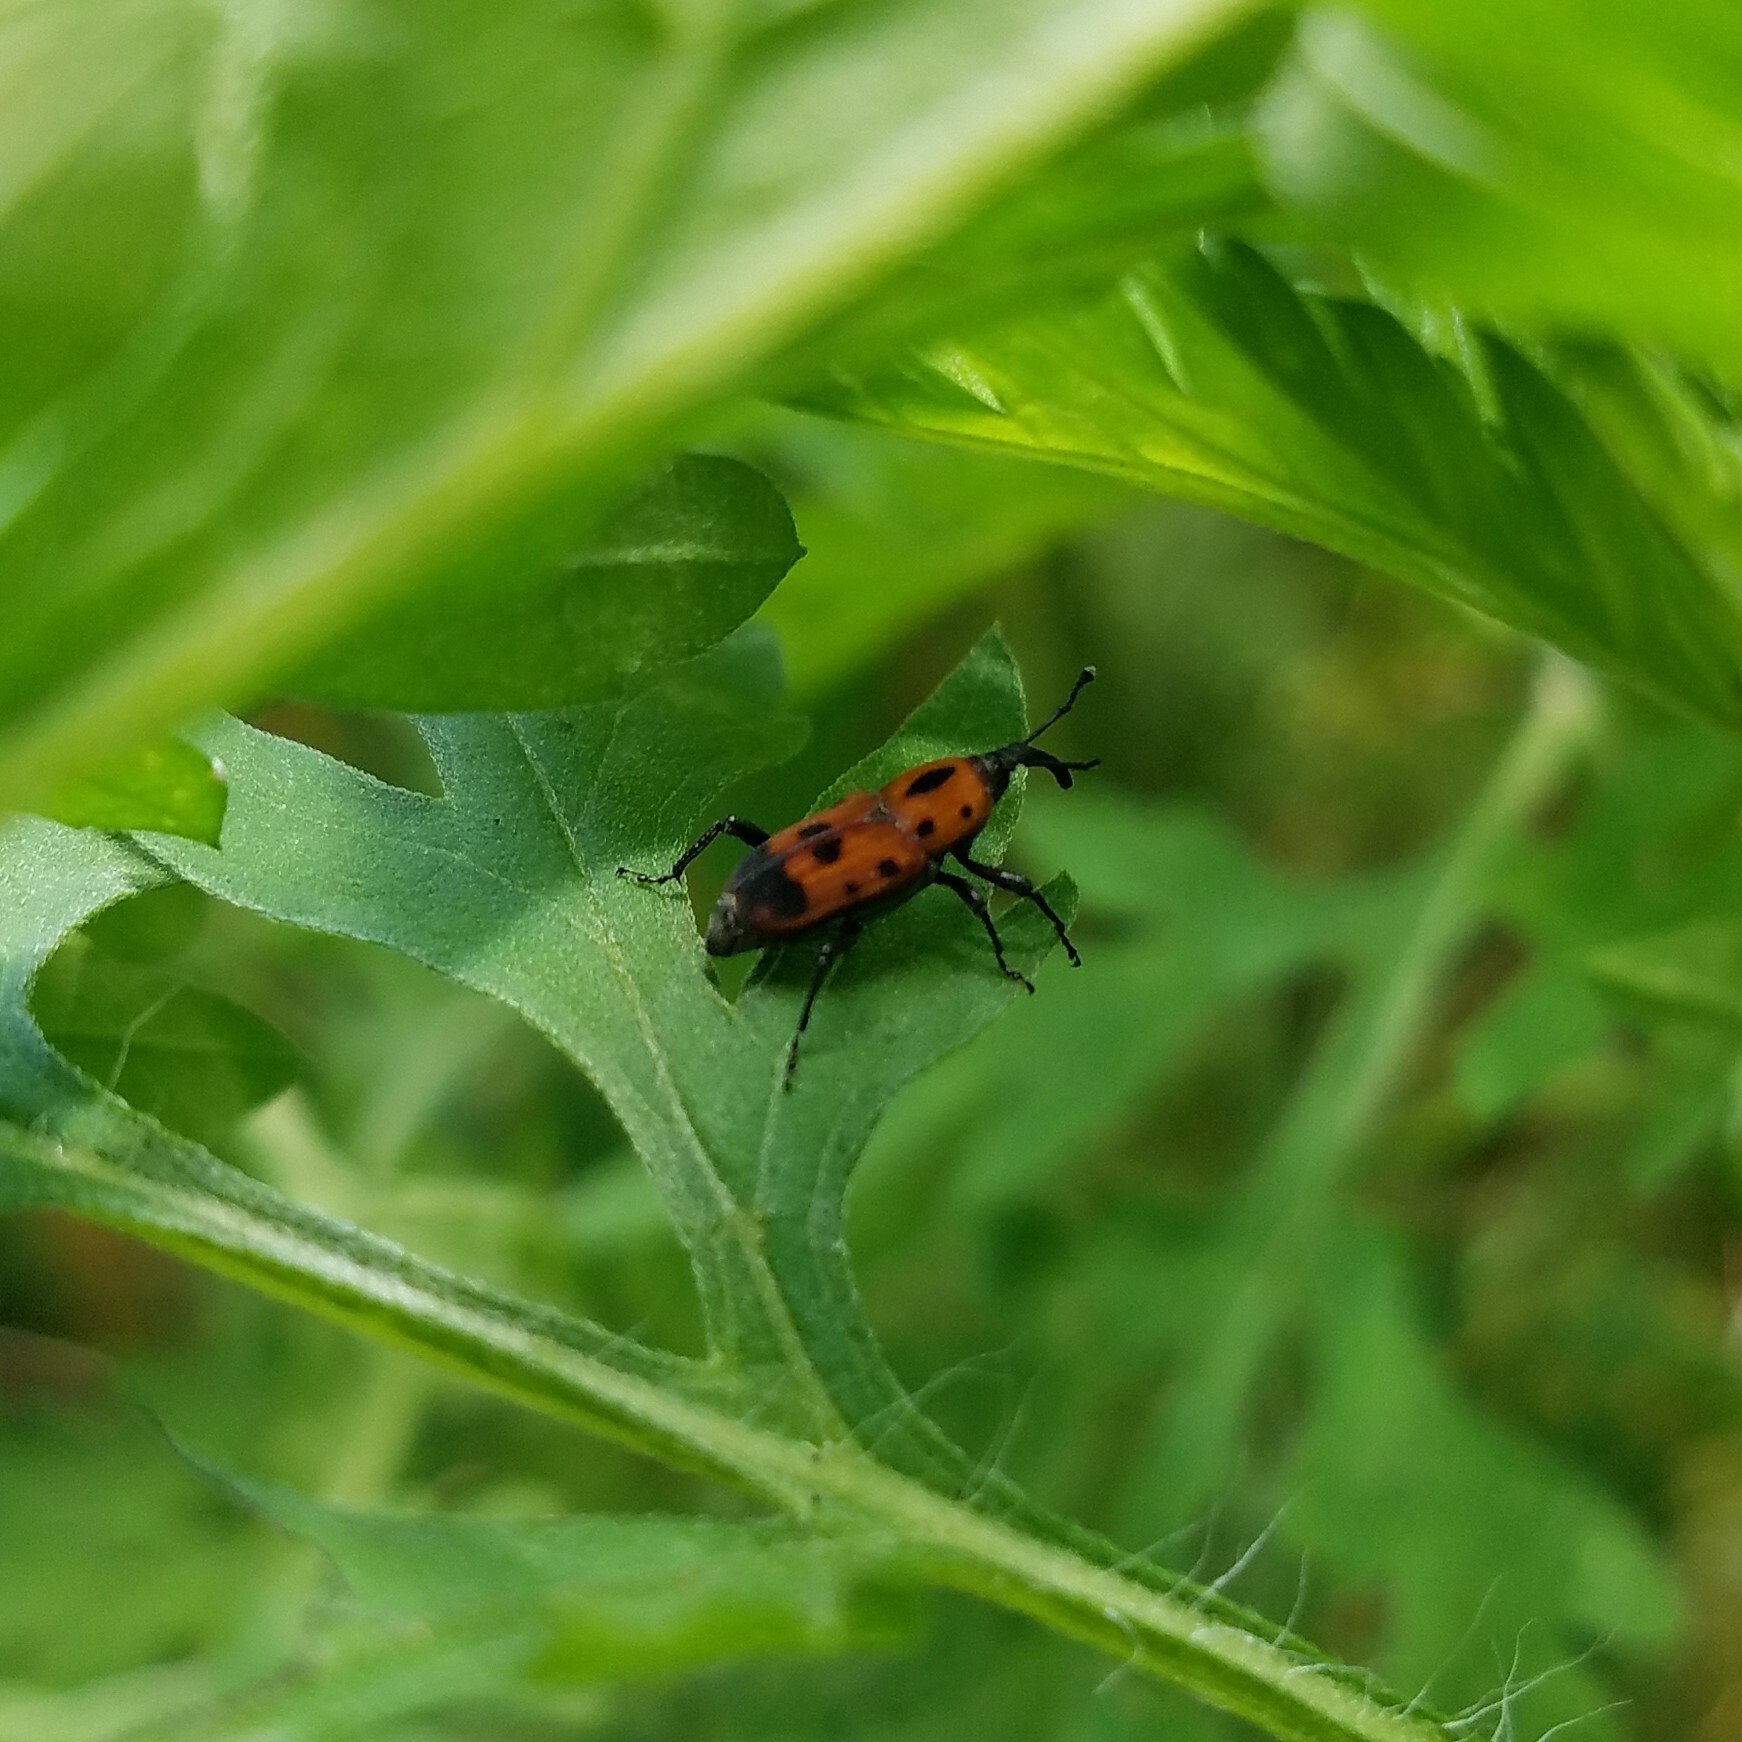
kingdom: Animalia
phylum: Arthropoda
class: Insecta
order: Coleoptera
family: Dryophthoridae
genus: Rhodobaenus
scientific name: Rhodobaenus quinquepunctatus
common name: Cocklebur weevil
